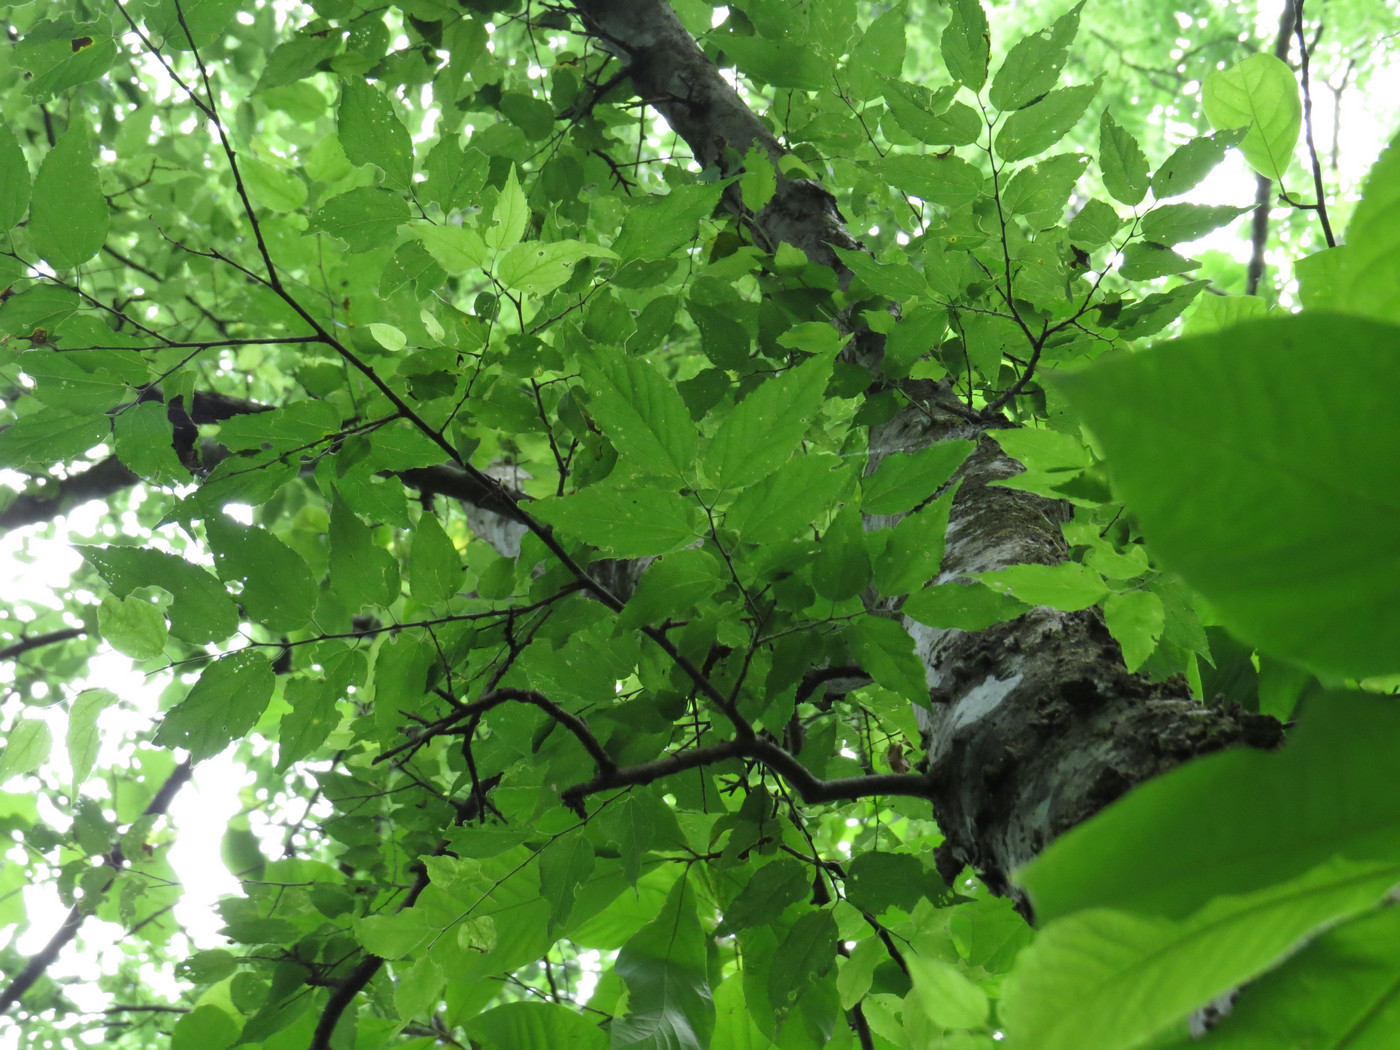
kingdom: Plantae
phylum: Tracheophyta
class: Magnoliopsida
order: Rosales
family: Cannabaceae
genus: Celtis
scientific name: Celtis laevigata
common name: Sugarberry
